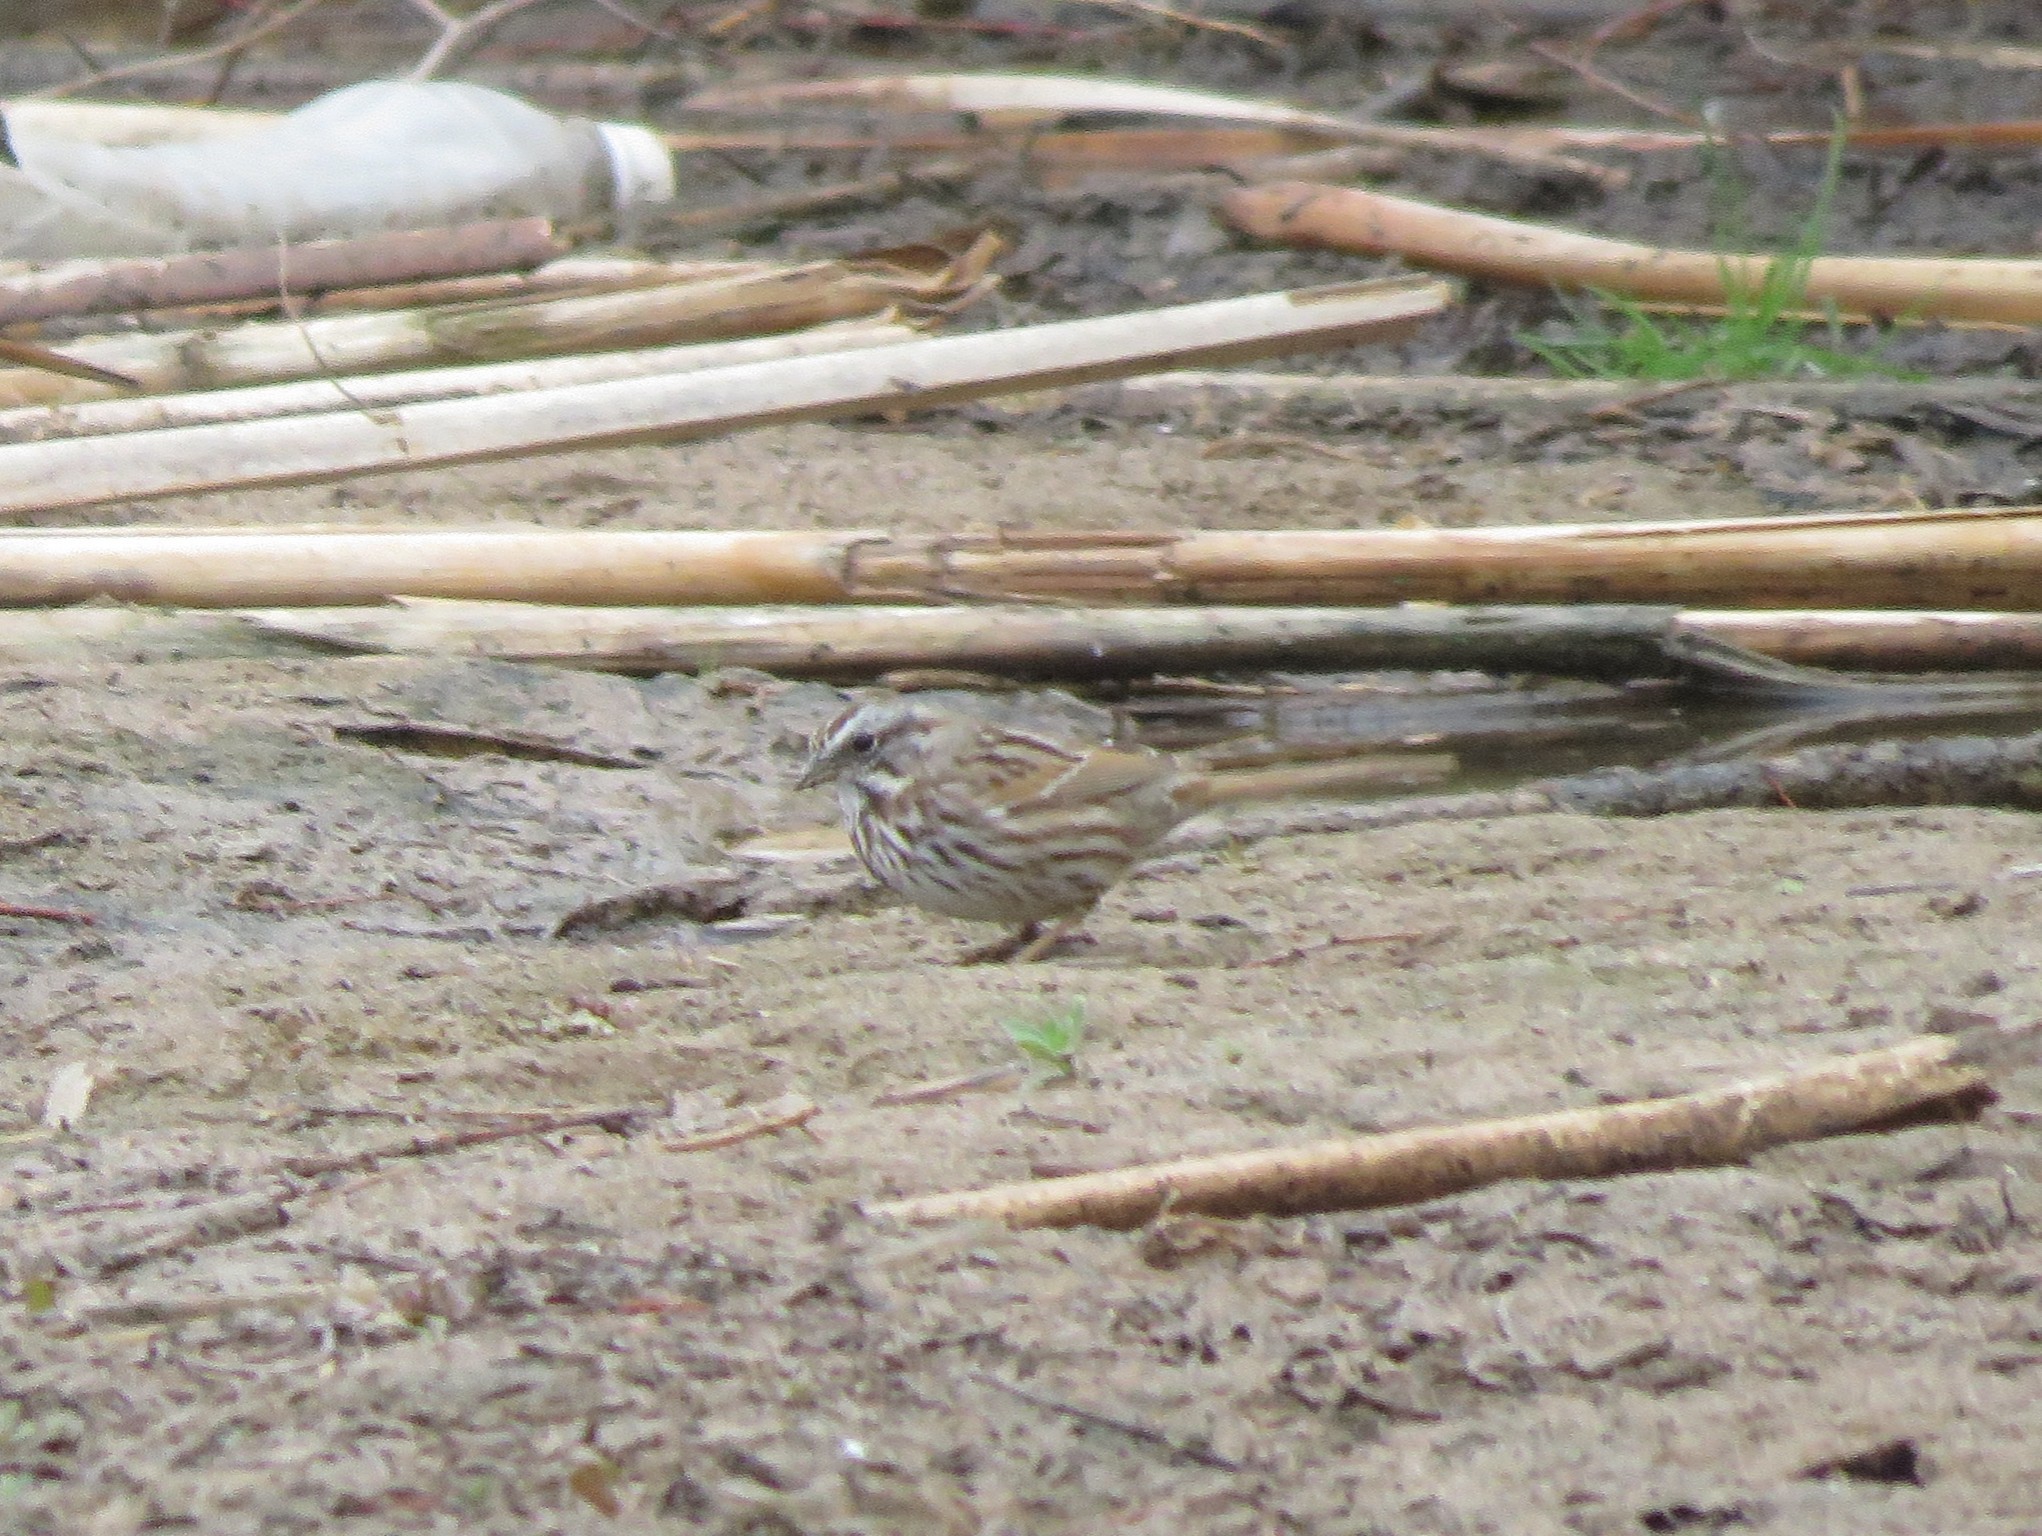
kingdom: Animalia
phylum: Chordata
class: Aves
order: Passeriformes
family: Passerellidae
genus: Melospiza
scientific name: Melospiza melodia
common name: Song sparrow
